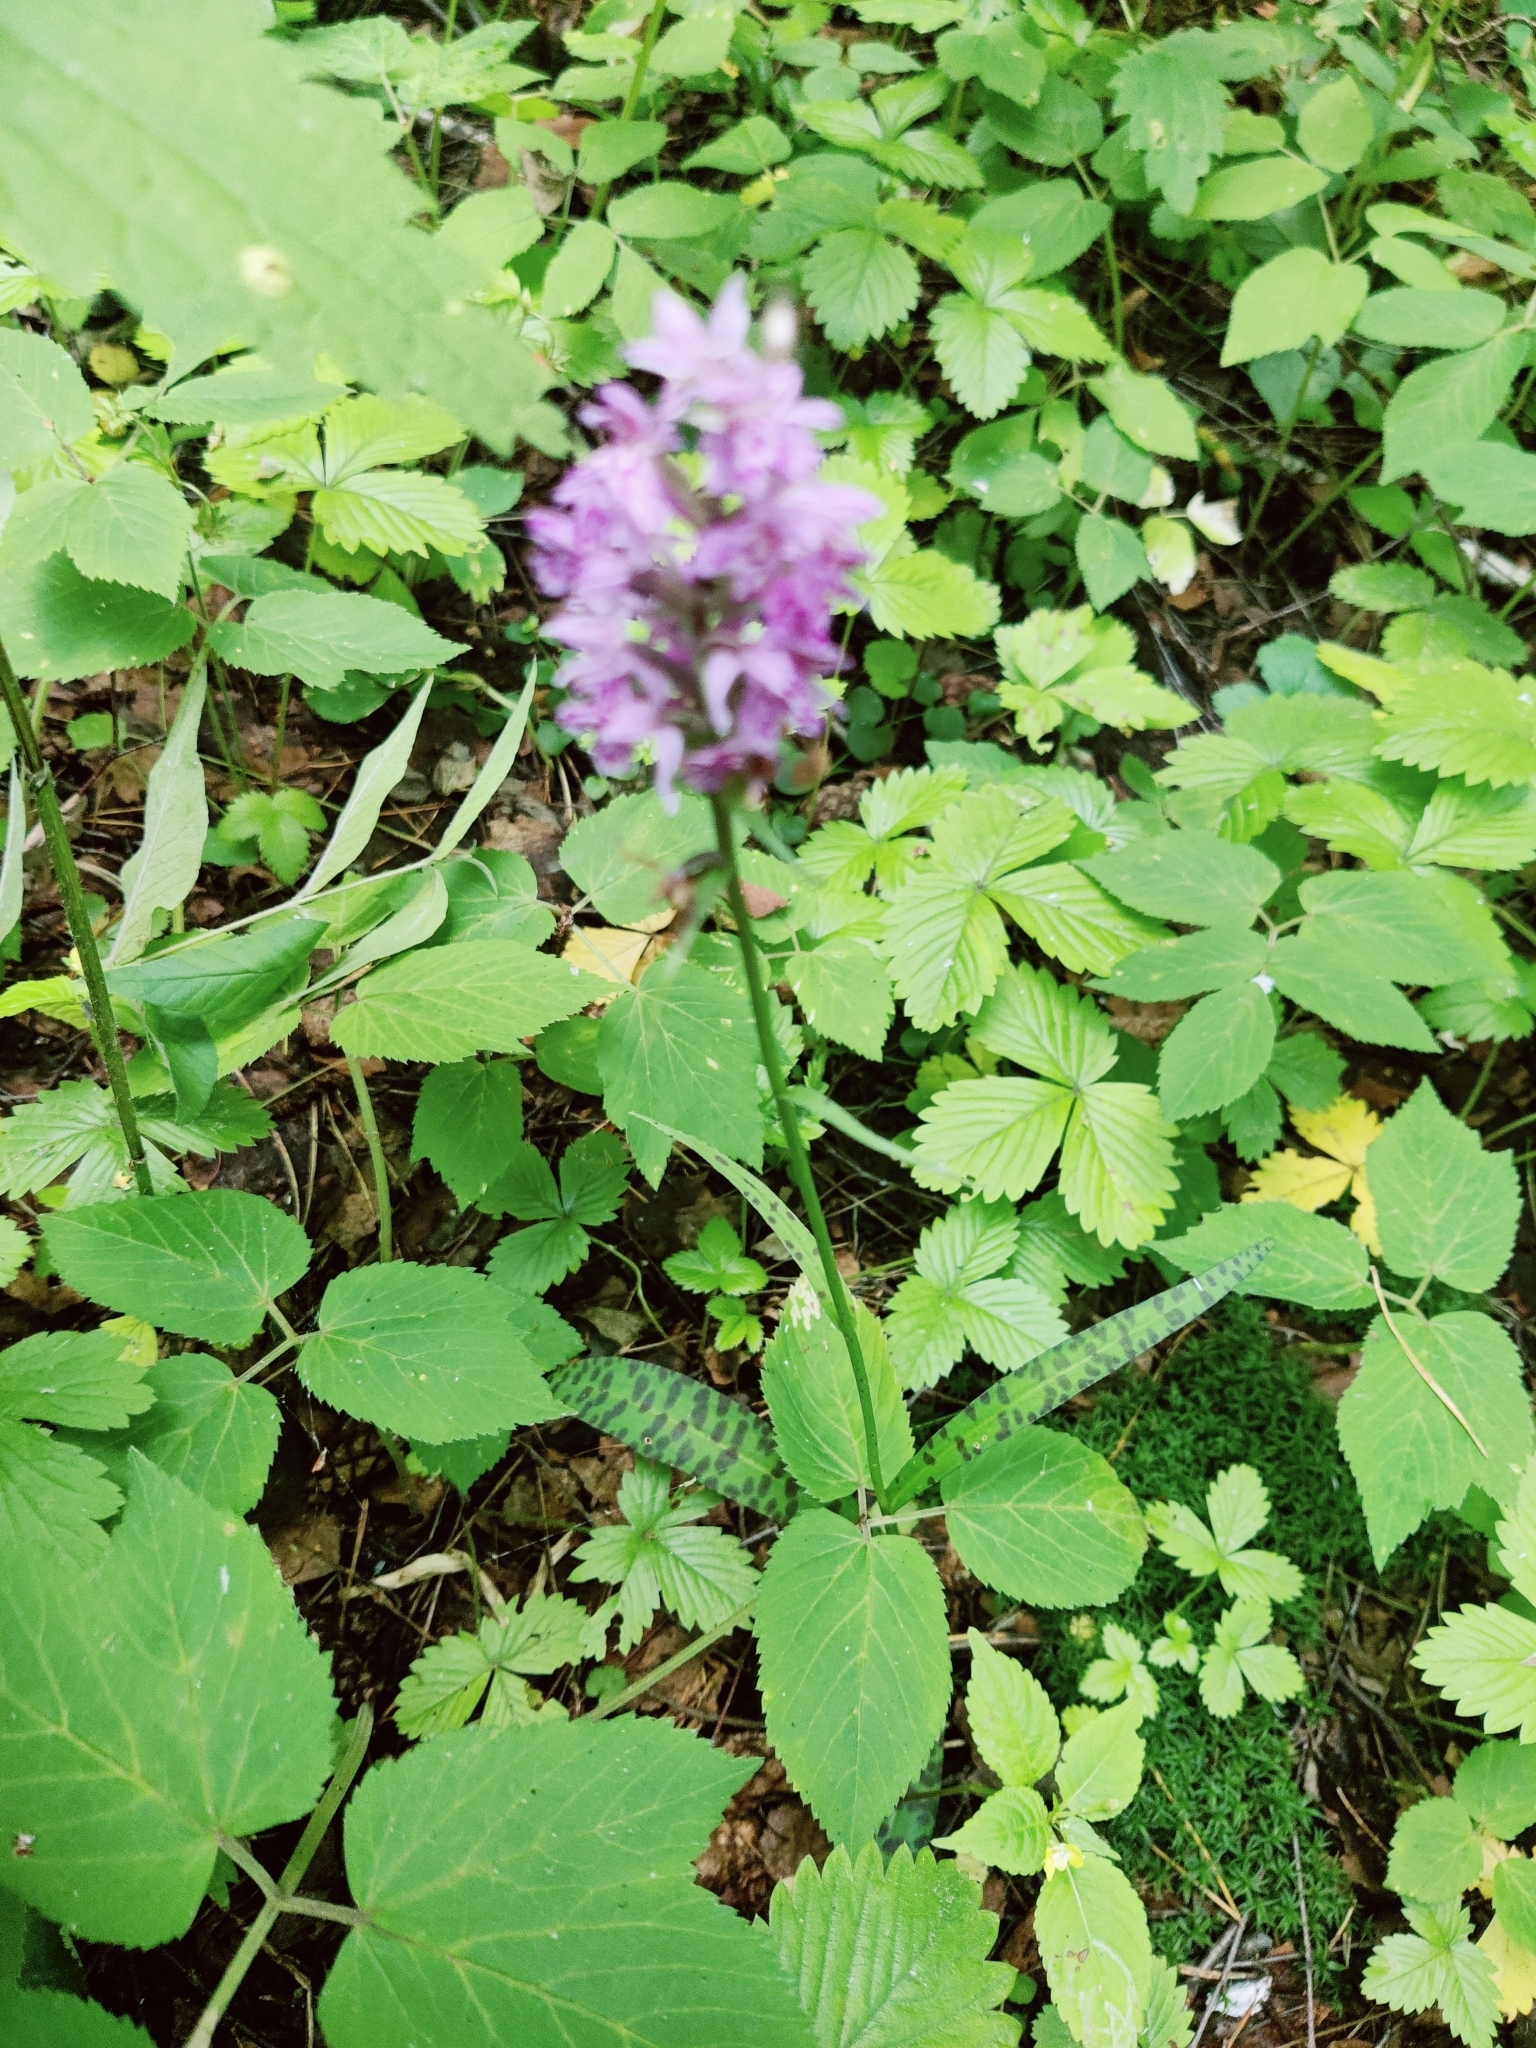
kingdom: Plantae
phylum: Tracheophyta
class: Liliopsida
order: Asparagales
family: Orchidaceae
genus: Dactylorhiza
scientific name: Dactylorhiza maculata
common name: Heath spotted-orchid
